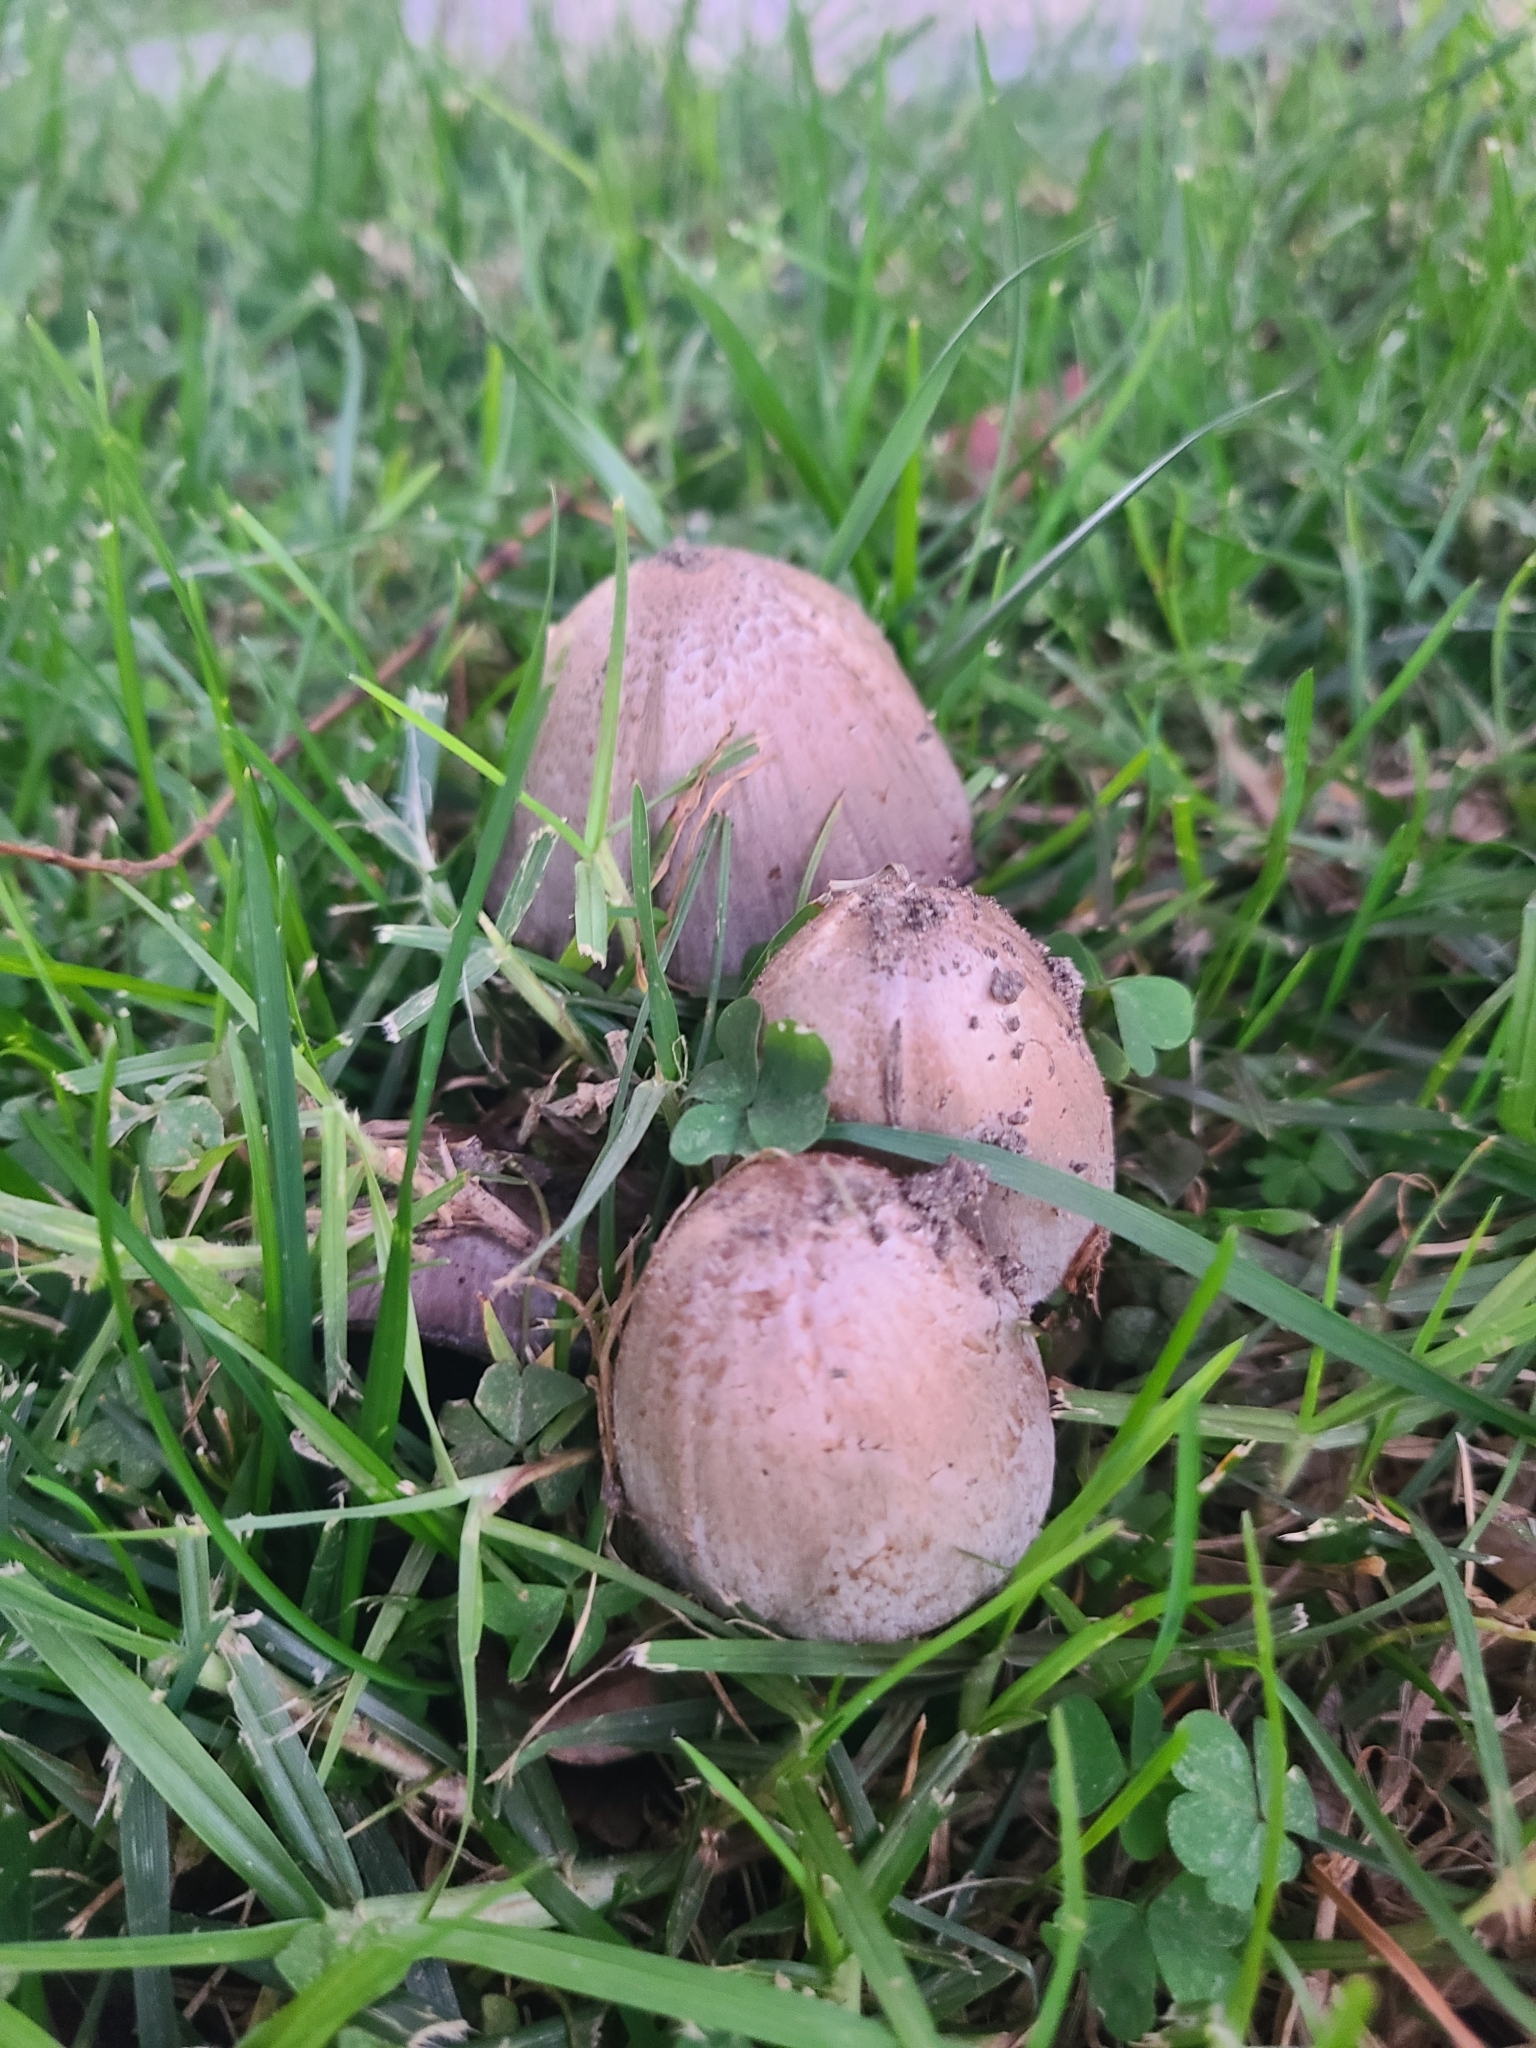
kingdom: Fungi
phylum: Basidiomycota
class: Agaricomycetes
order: Agaricales
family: Psathyrellaceae
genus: Coprinopsis
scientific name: Coprinopsis atramentaria
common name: Common ink-cap
